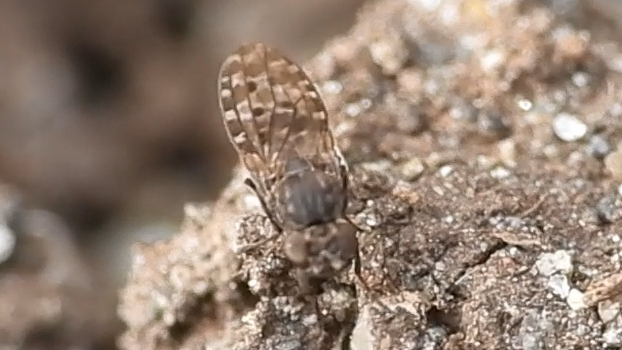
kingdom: Animalia
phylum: Arthropoda
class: Insecta
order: Diptera
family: Ephydridae
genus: Limnellia
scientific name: Limnellia turneri
